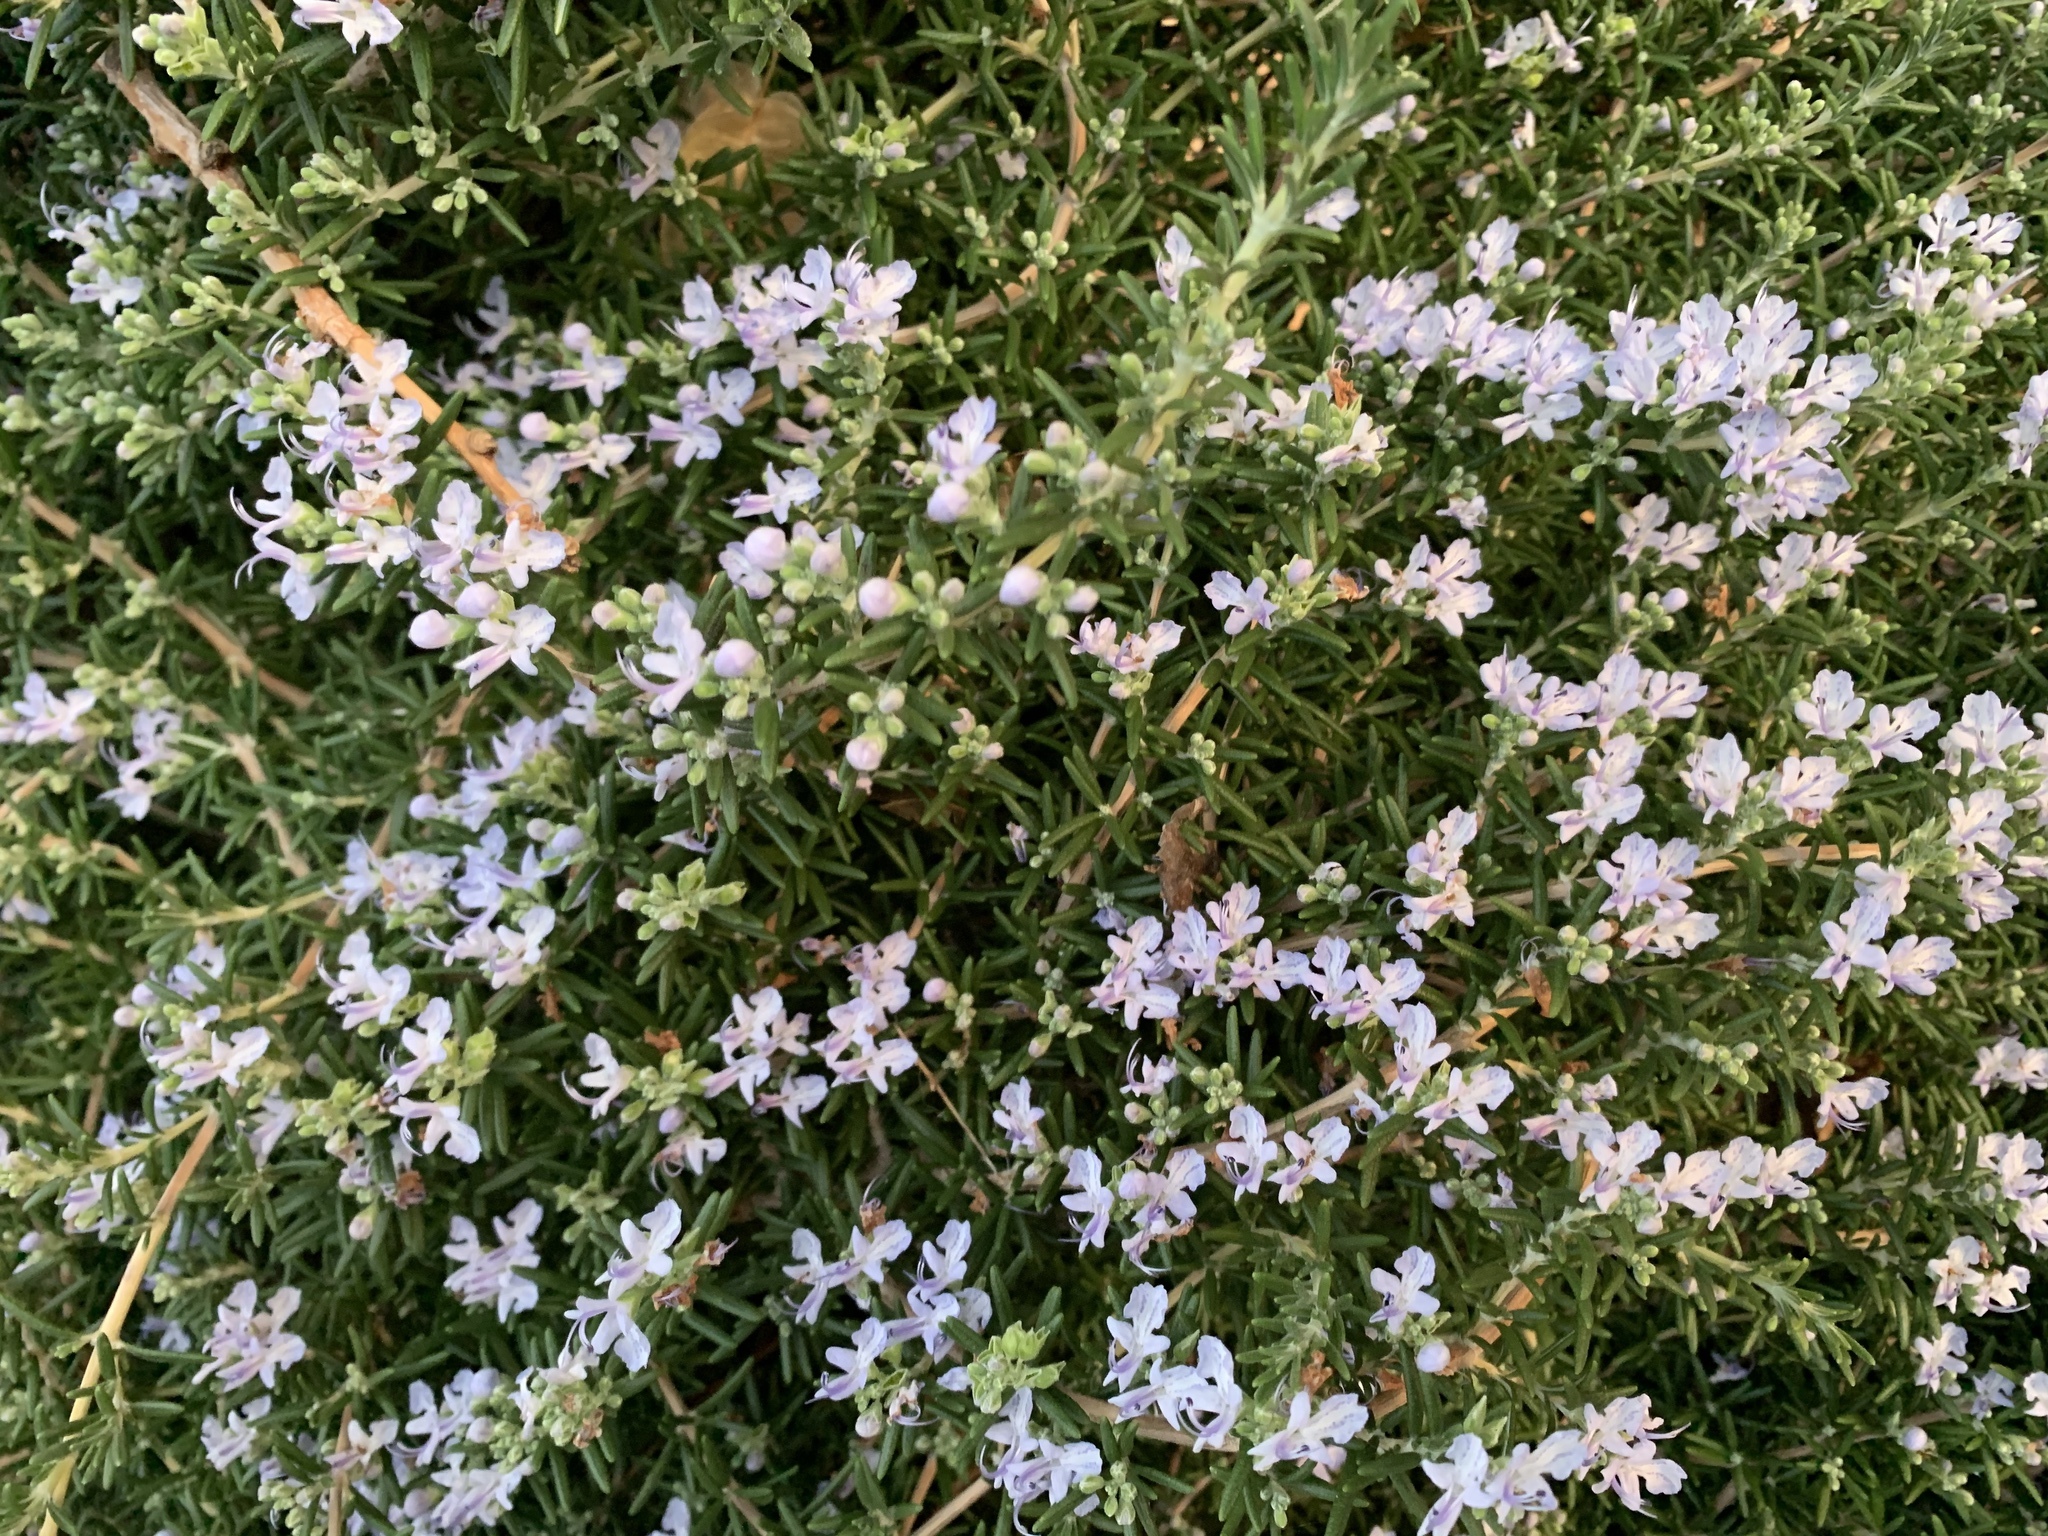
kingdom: Plantae
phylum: Tracheophyta
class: Magnoliopsida
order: Lamiales
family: Lamiaceae
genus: Salvia
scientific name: Salvia rosmarinus
